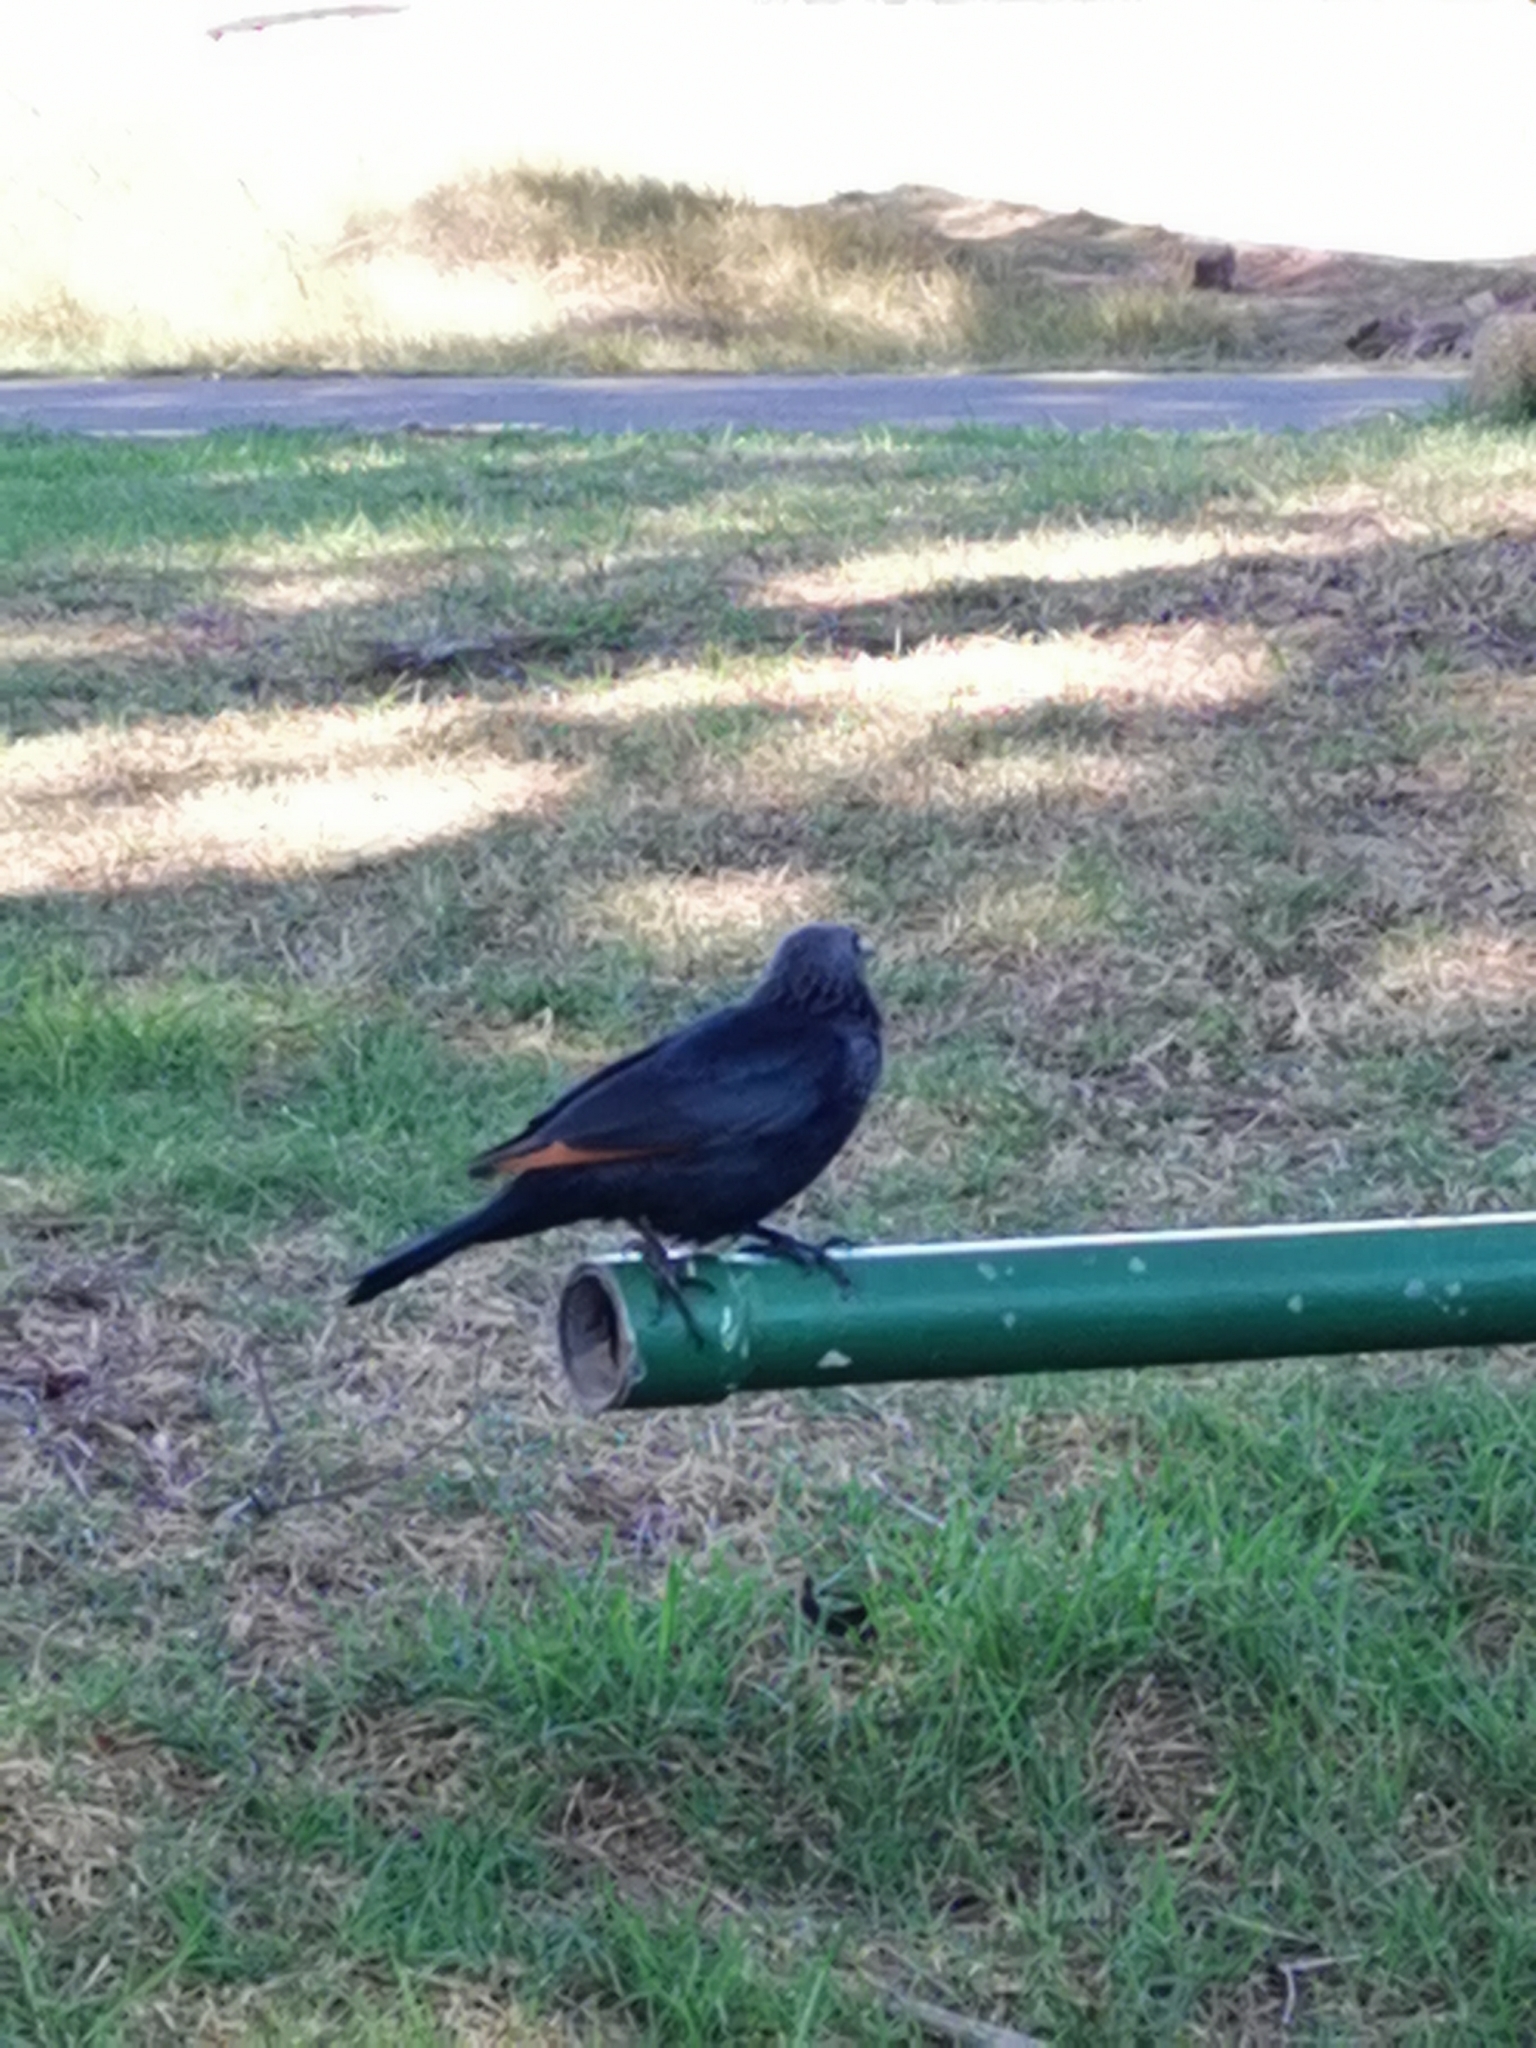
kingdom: Animalia
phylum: Chordata
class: Aves
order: Passeriformes
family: Sturnidae
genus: Onychognathus
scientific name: Onychognathus morio
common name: Red-winged starling
